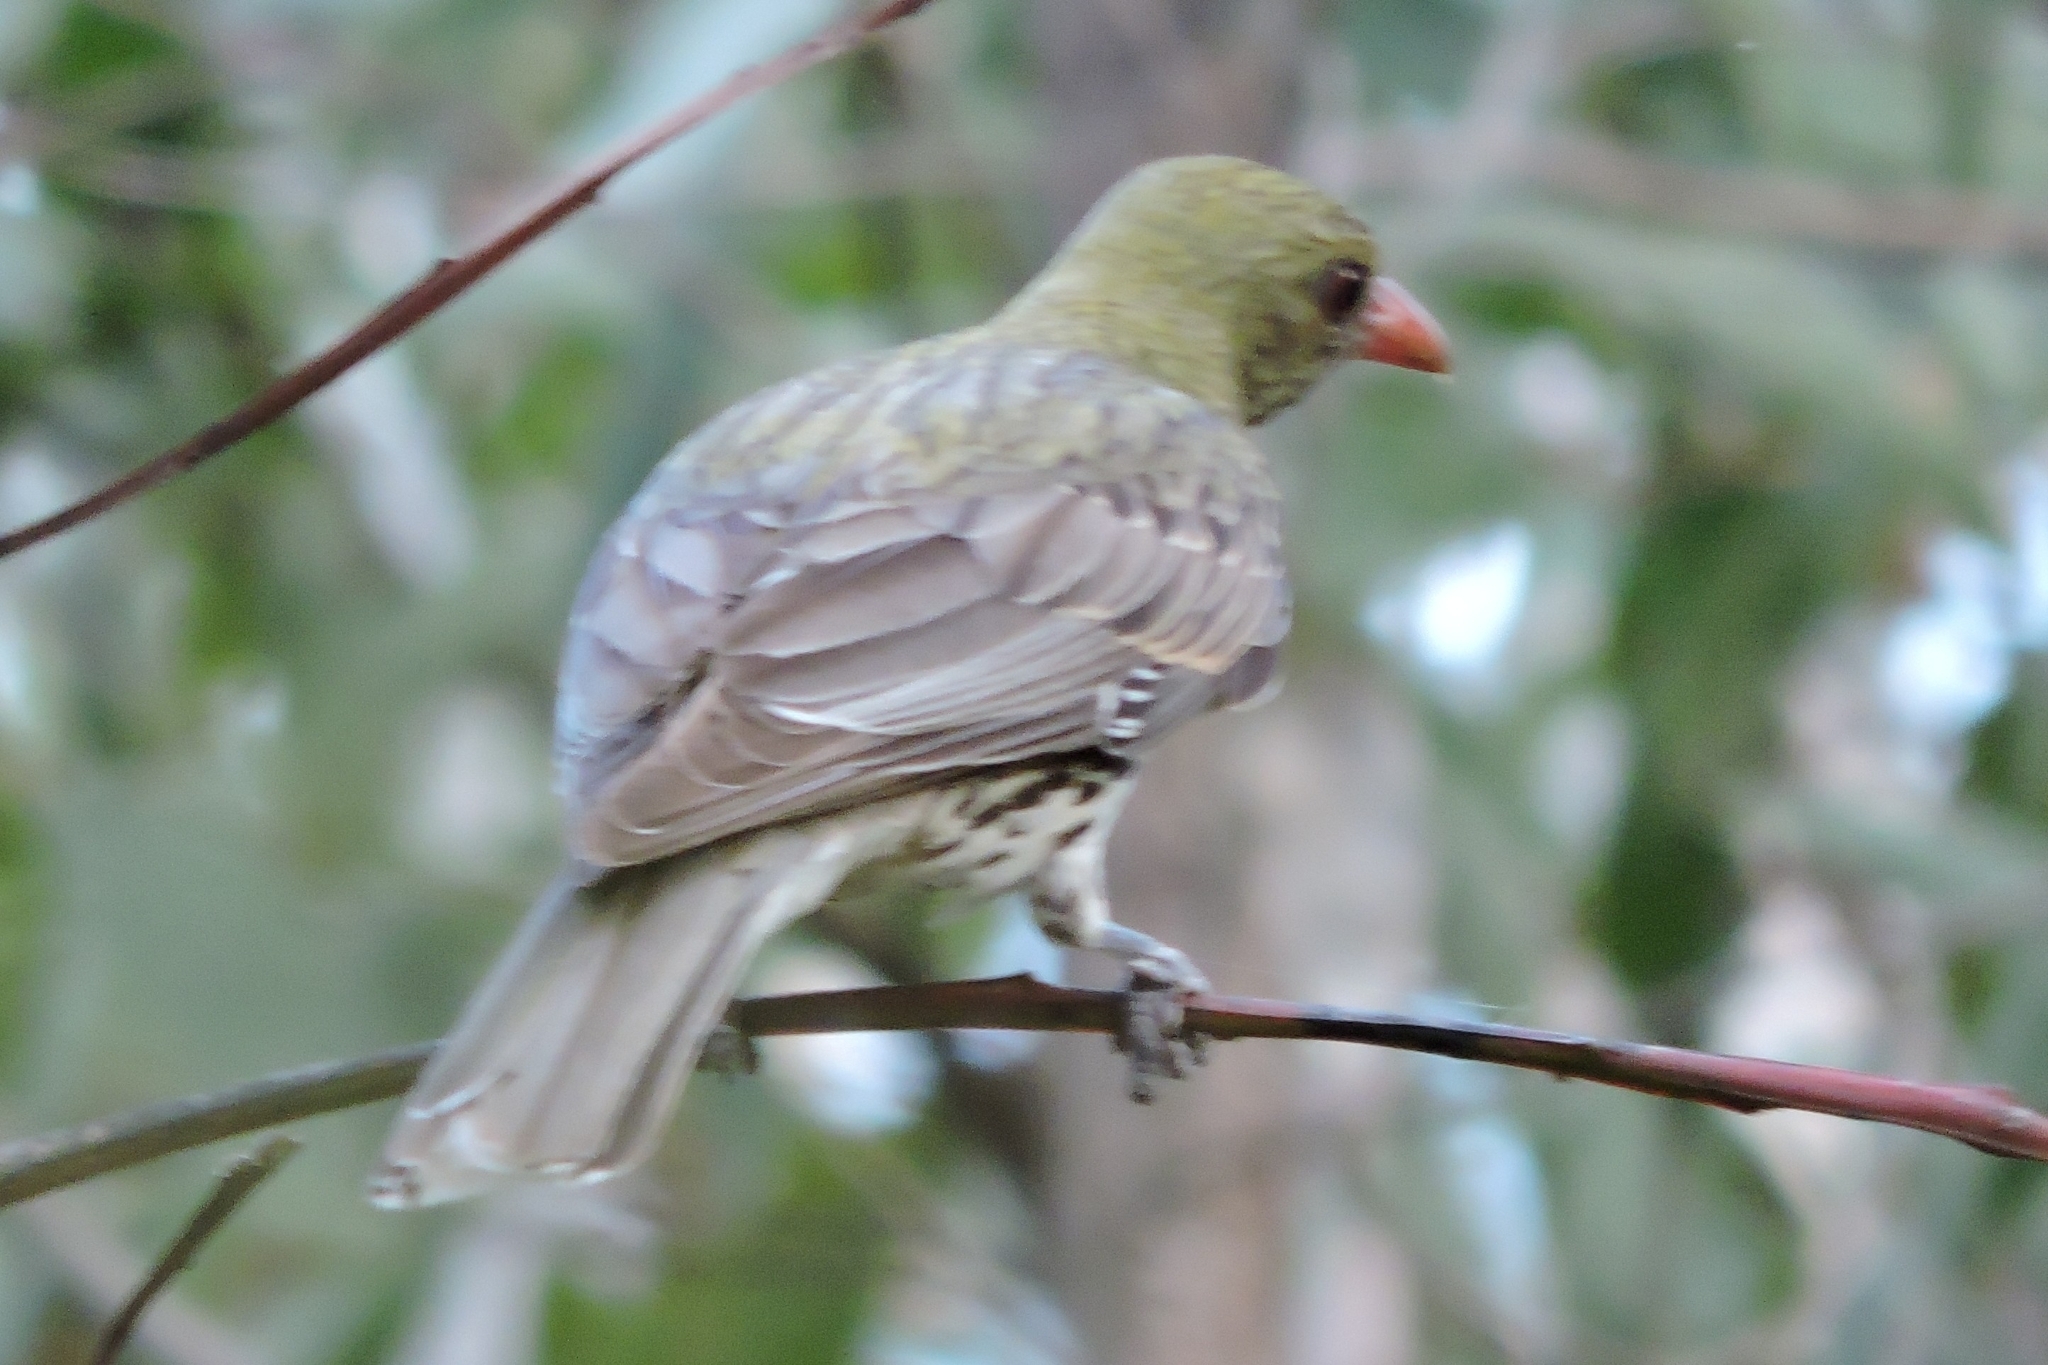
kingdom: Animalia
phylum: Chordata
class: Aves
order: Passeriformes
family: Oriolidae
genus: Oriolus
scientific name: Oriolus sagittatus
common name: Olive-backed oriole
